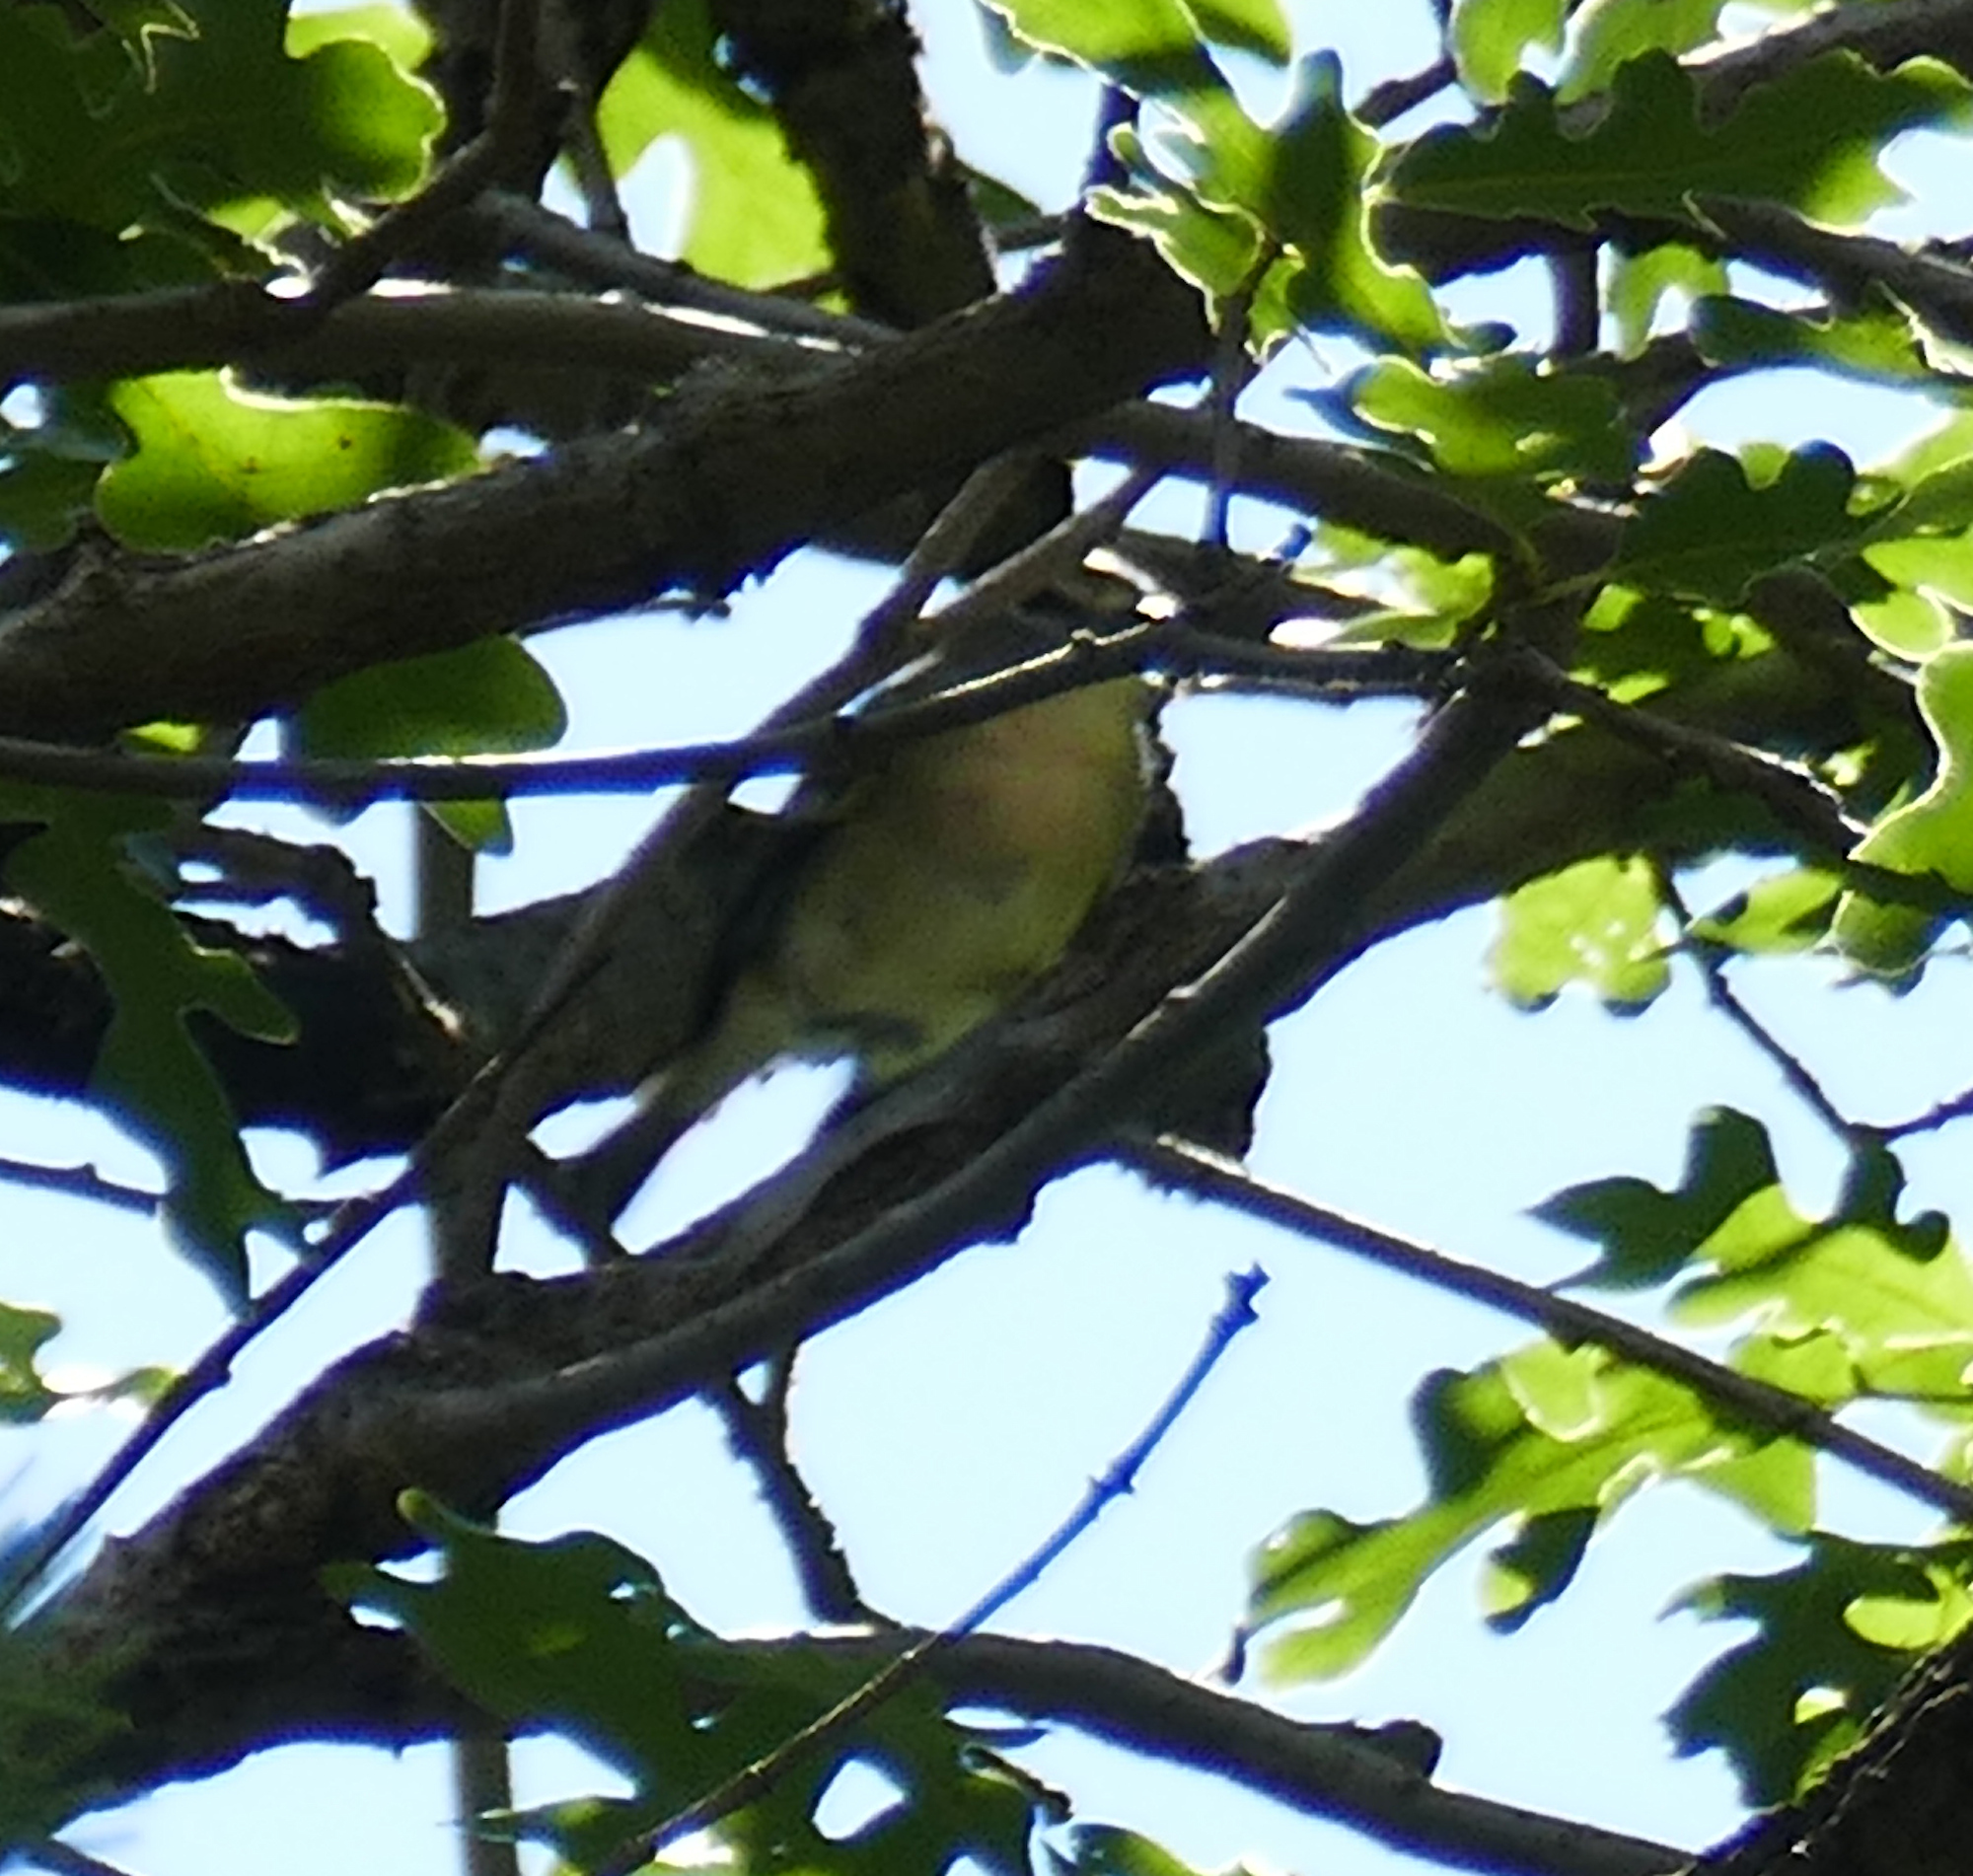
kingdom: Animalia
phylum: Chordata
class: Aves
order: Passeriformes
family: Vireonidae
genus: Vireo
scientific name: Vireo cassinii
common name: Cassin's vireo
